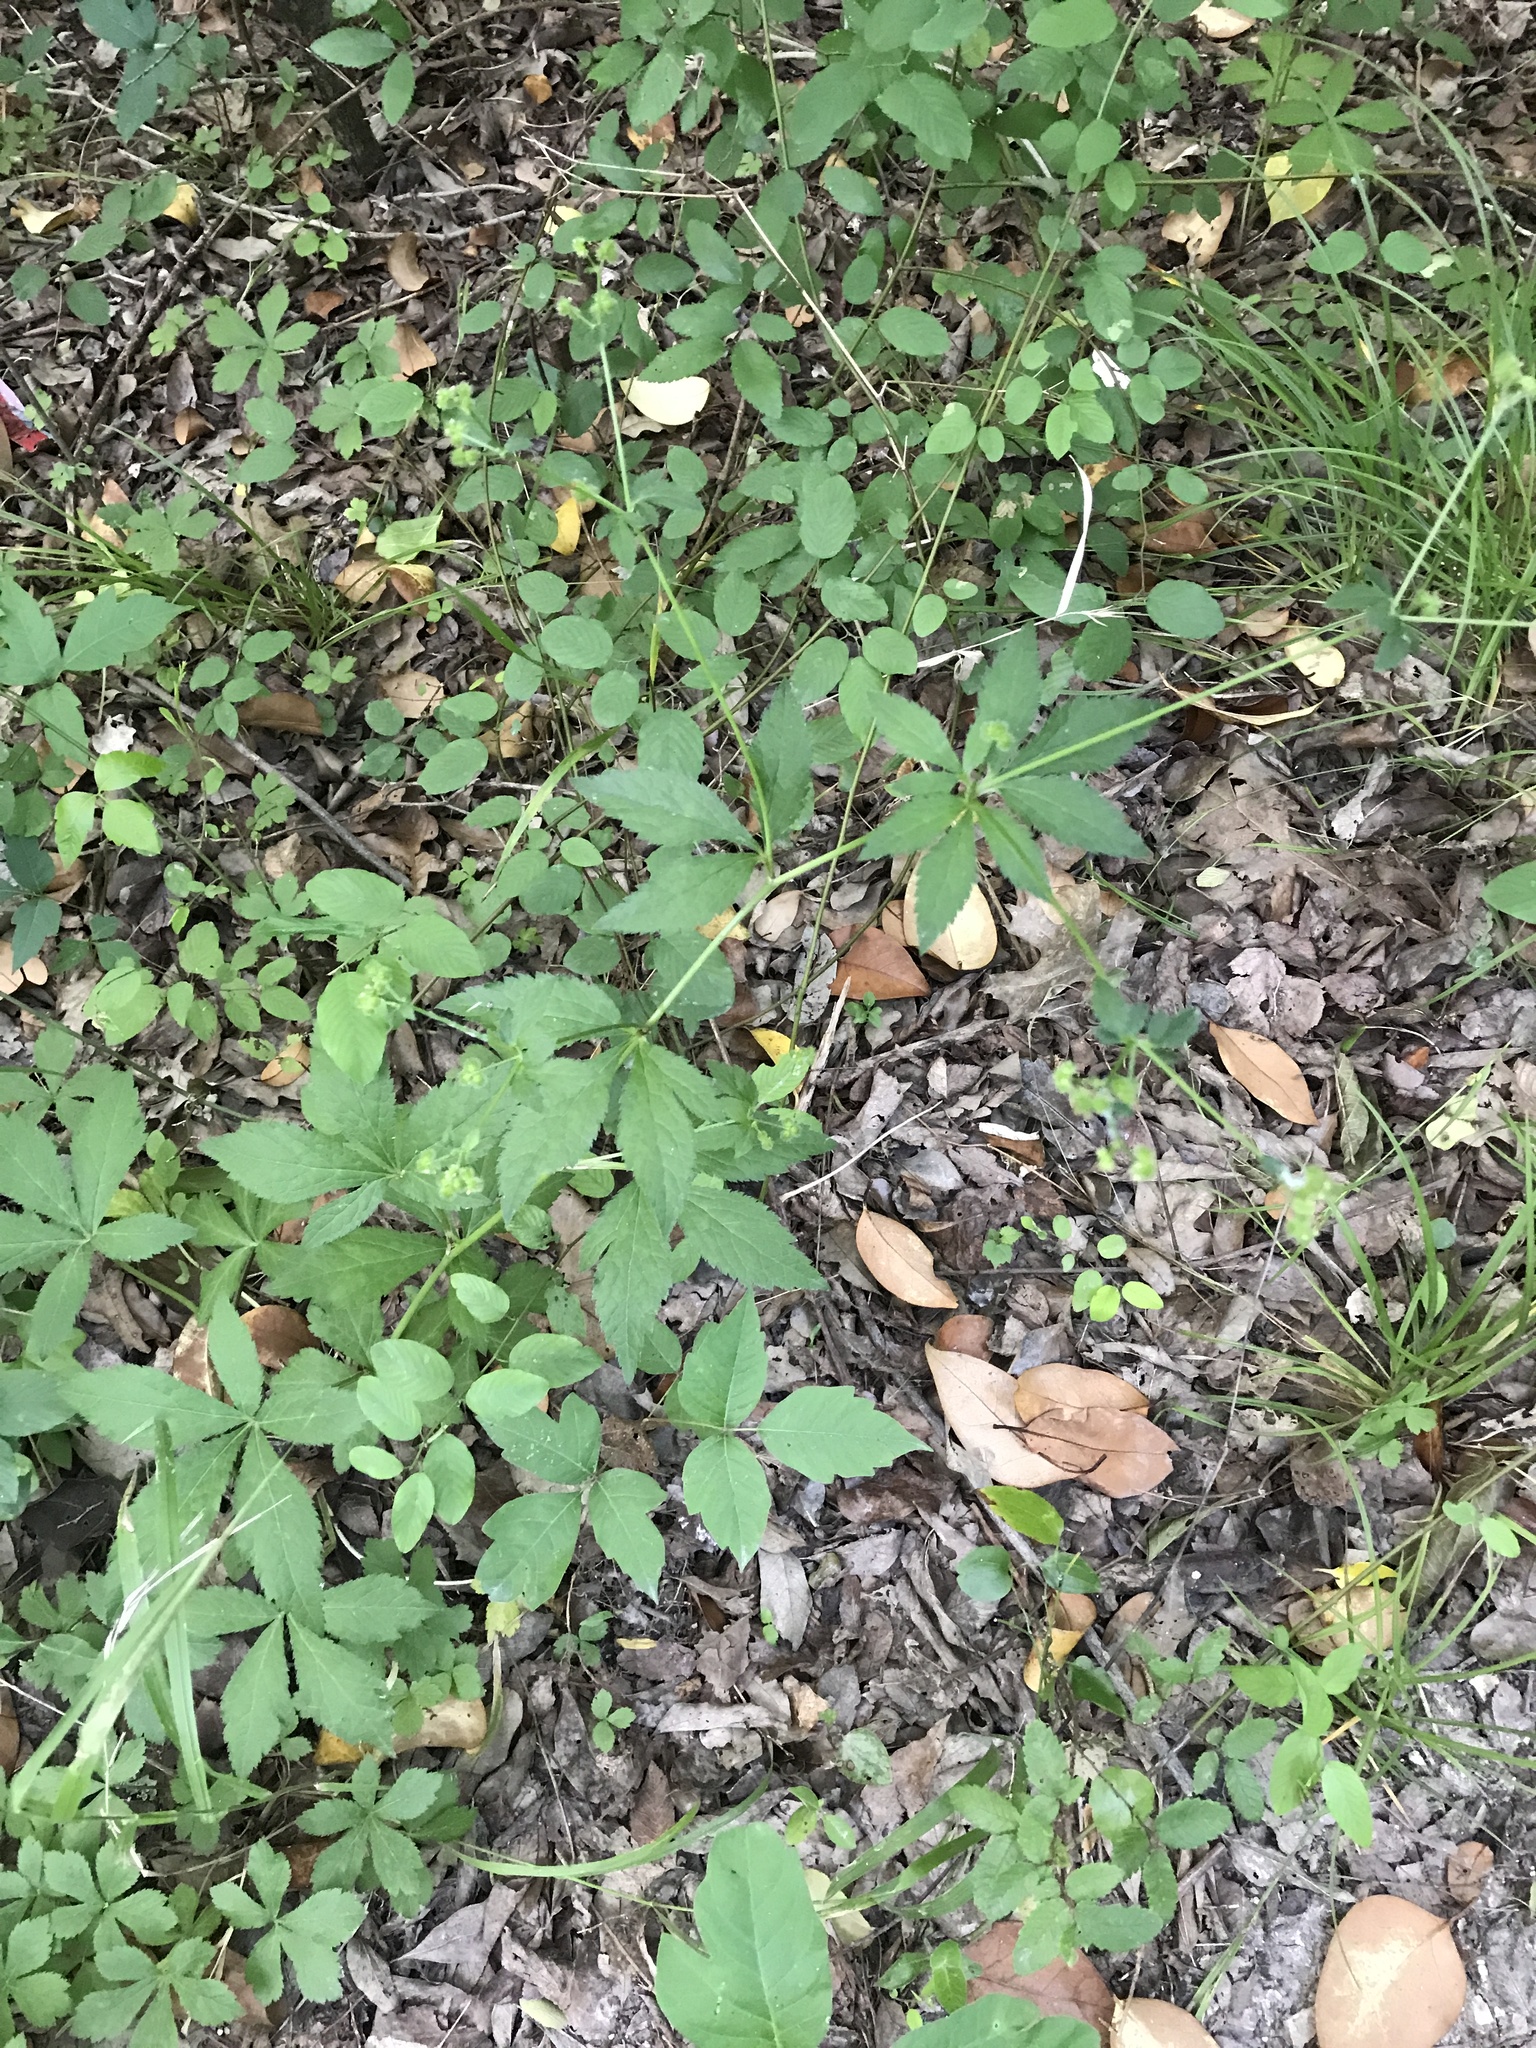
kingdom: Plantae
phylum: Tracheophyta
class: Magnoliopsida
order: Apiales
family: Apiaceae
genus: Sanicula
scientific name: Sanicula canadensis
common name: Canada sanicle
